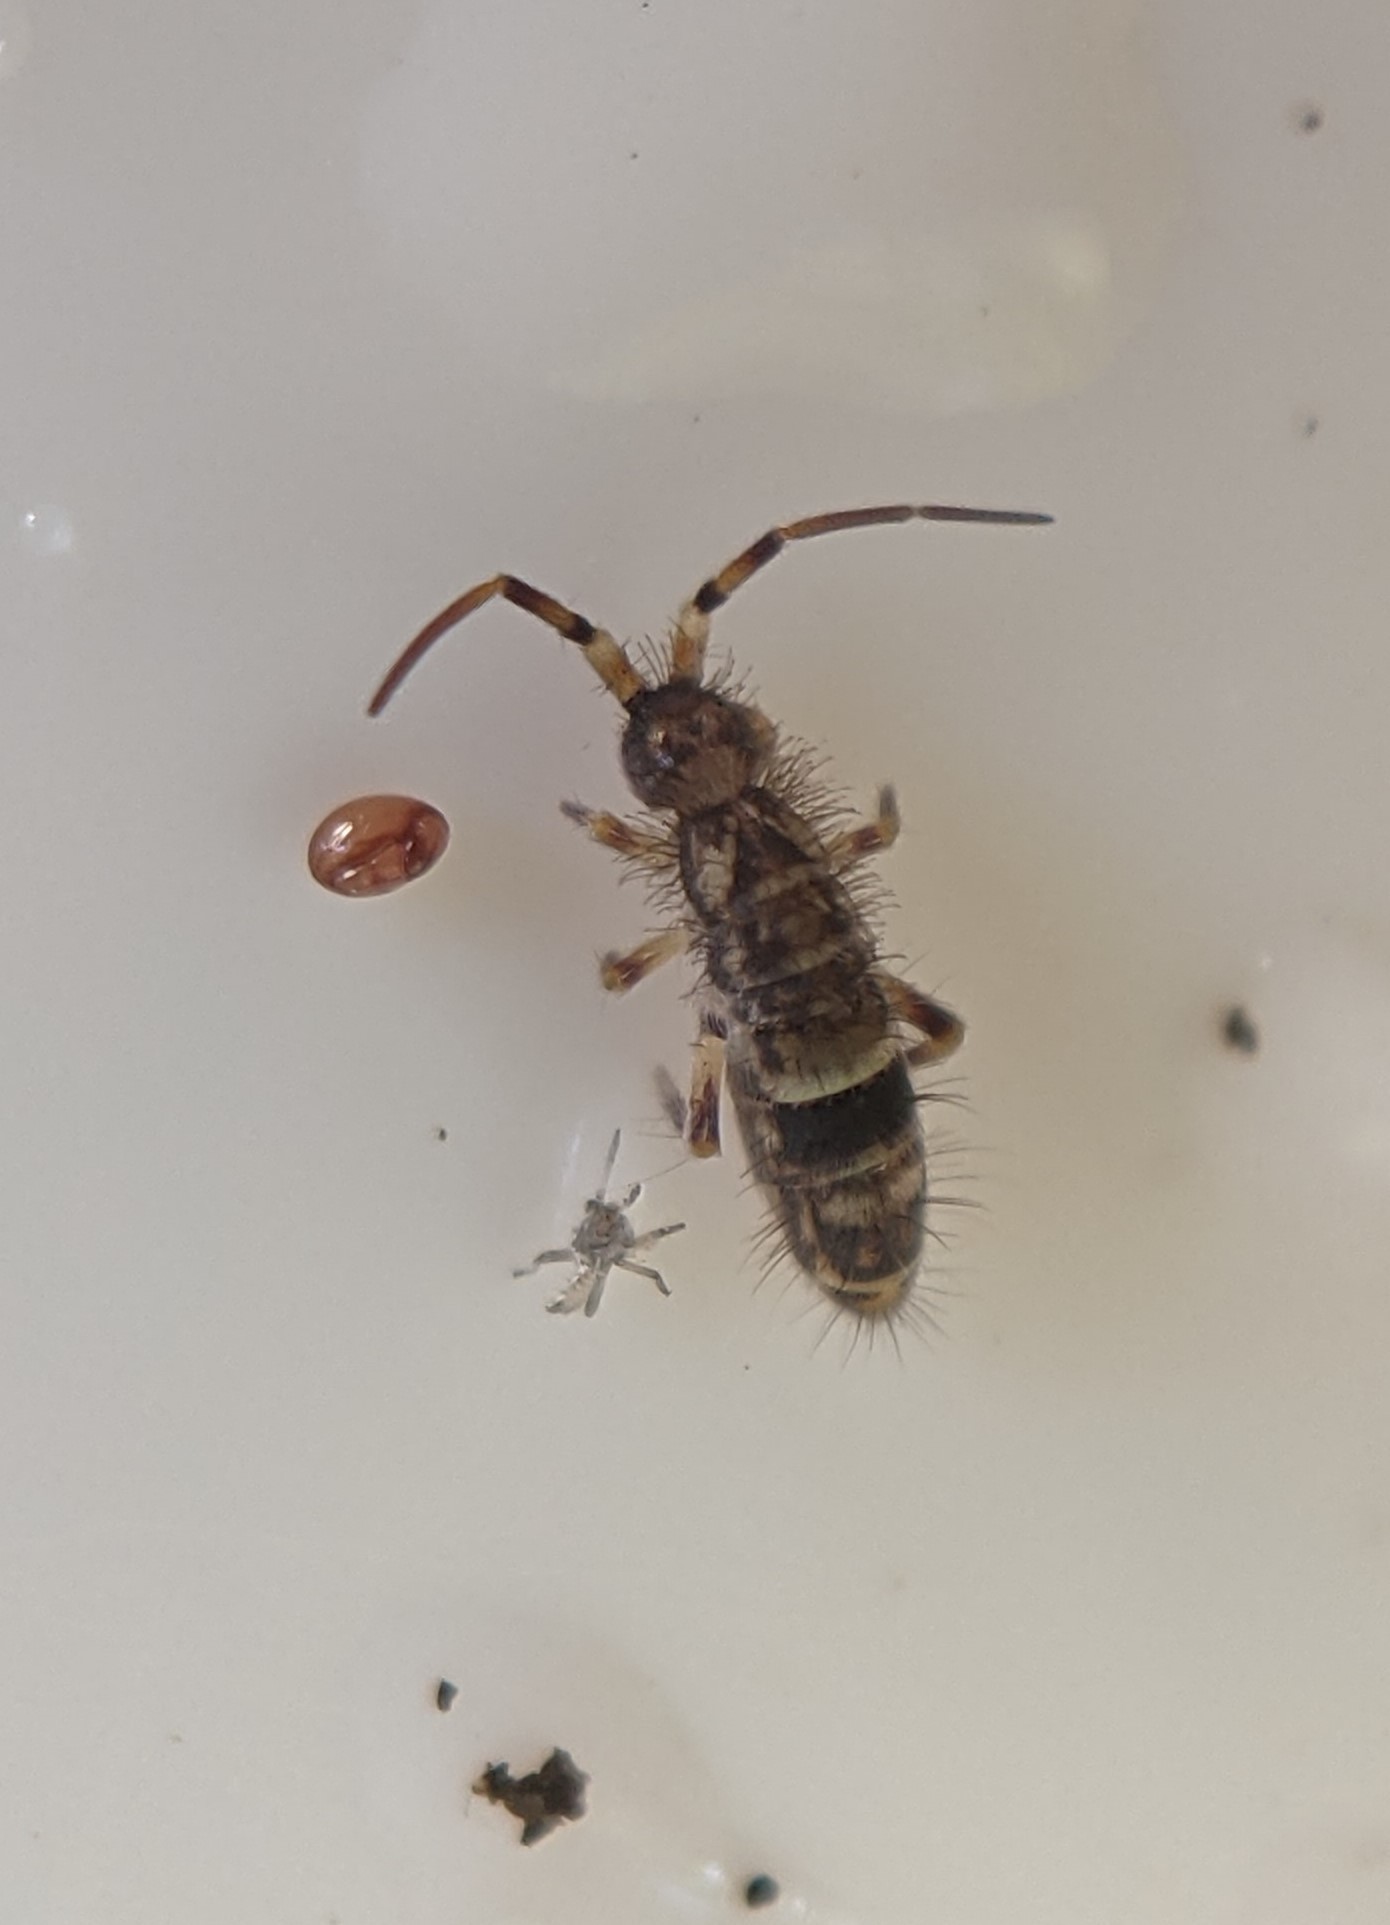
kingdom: Animalia
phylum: Arthropoda
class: Collembola
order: Entomobryomorpha
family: Orchesellidae
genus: Orchesella
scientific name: Orchesella cincta
